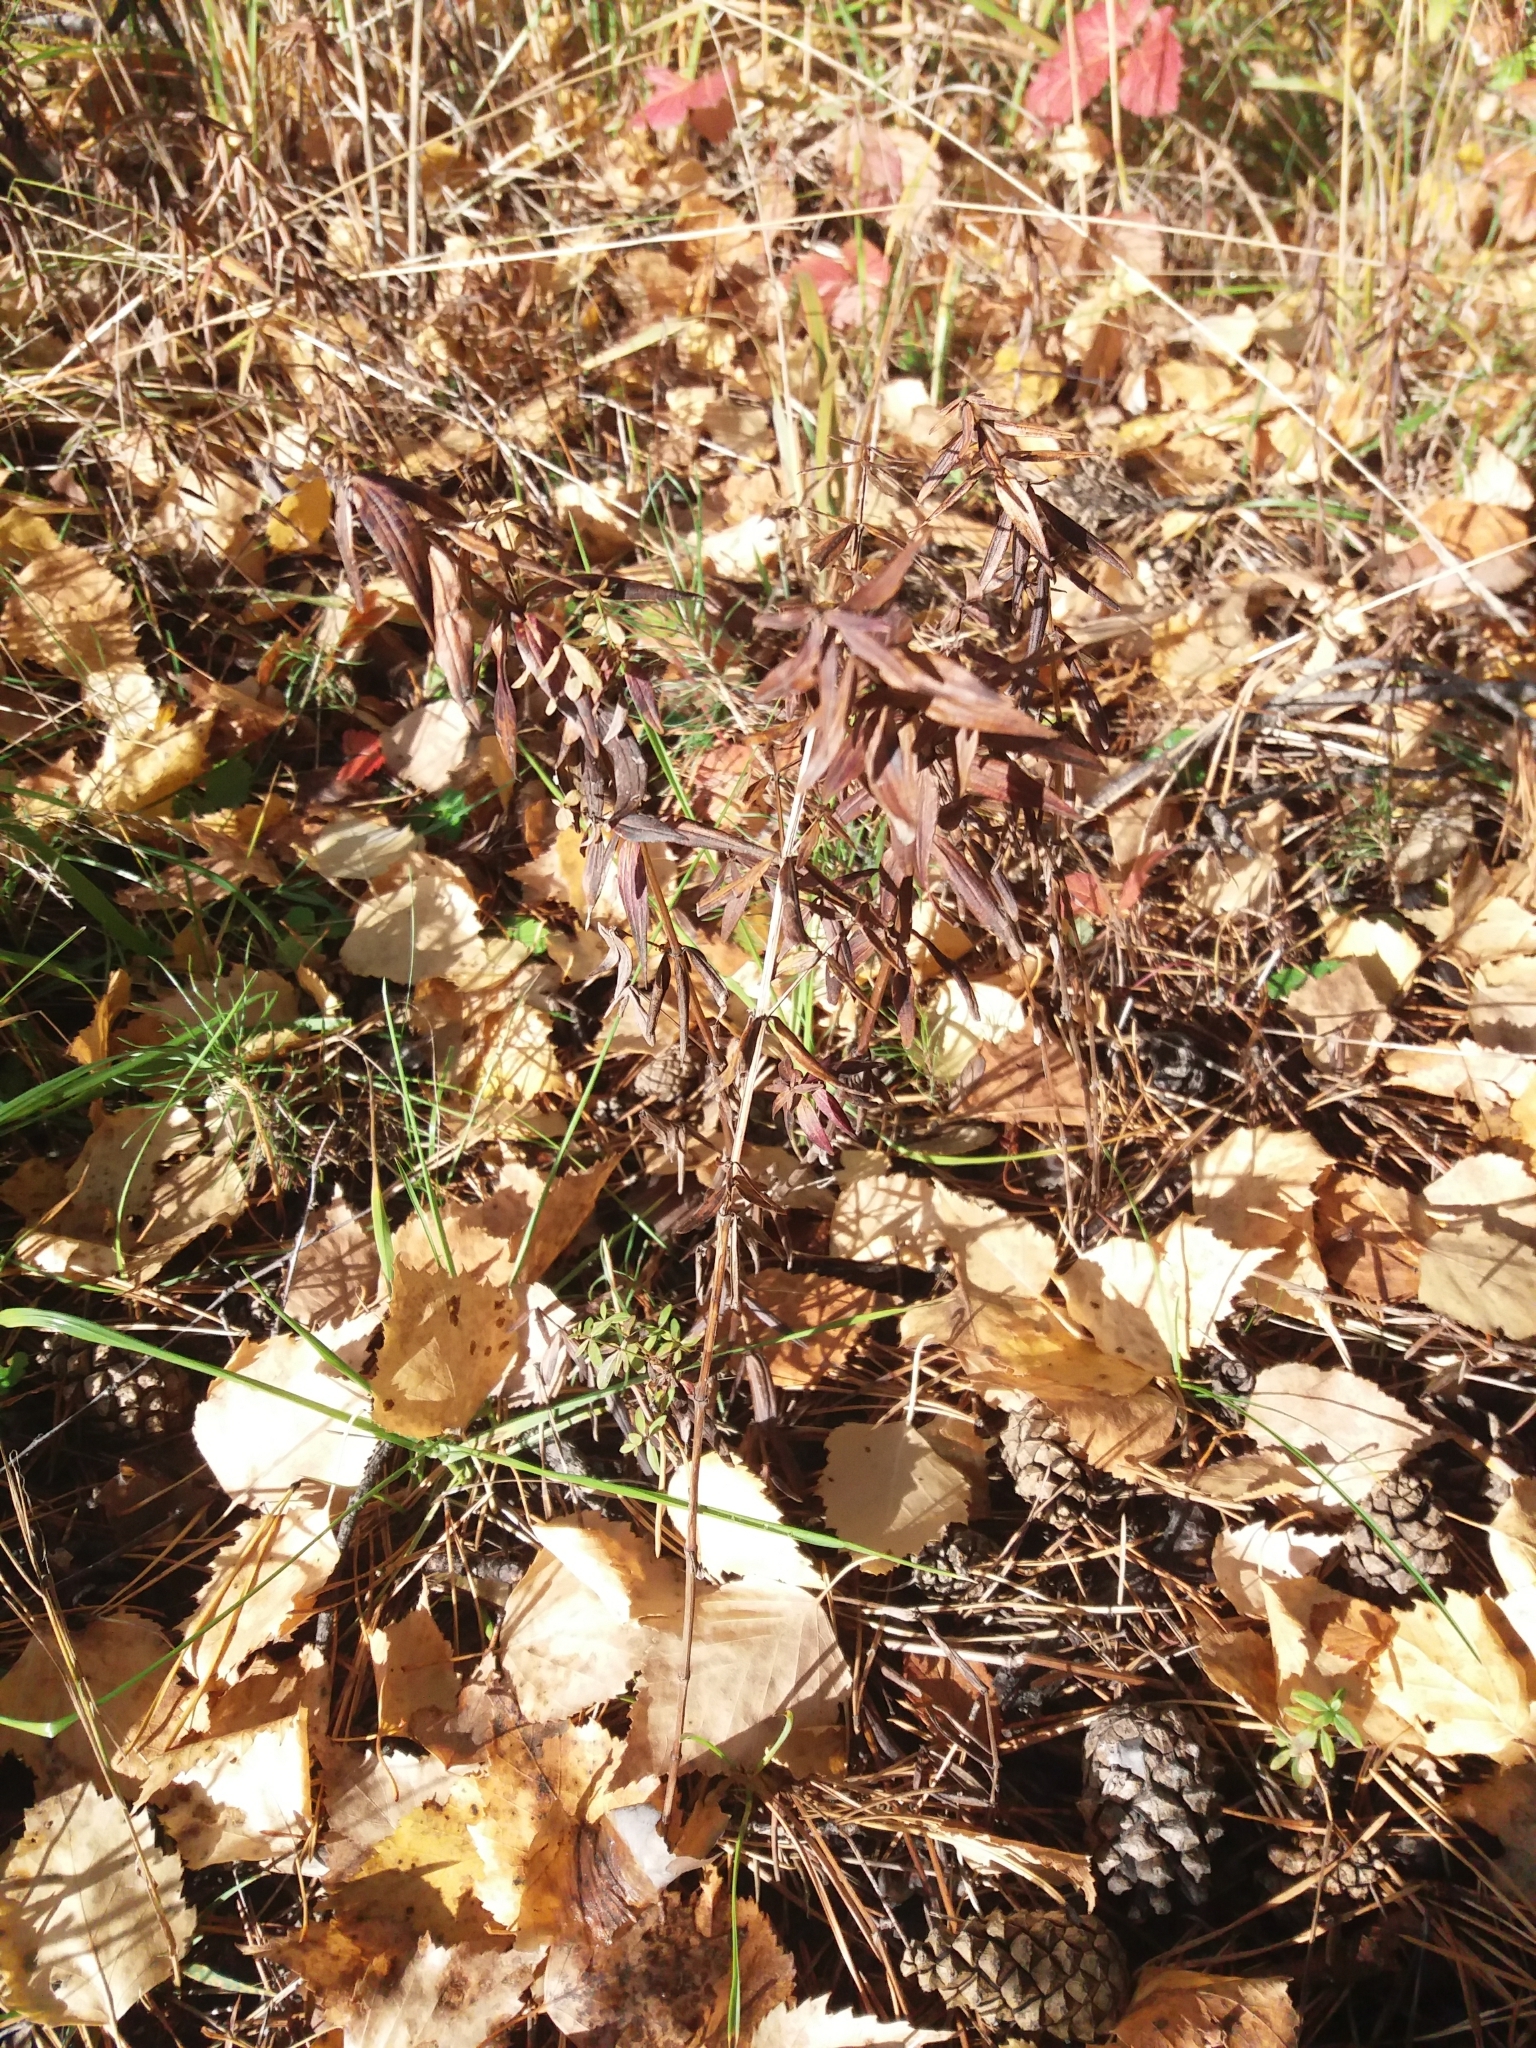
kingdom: Plantae
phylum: Tracheophyta
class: Magnoliopsida
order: Gentianales
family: Rubiaceae
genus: Galium
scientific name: Galium boreale
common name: Northern bedstraw
